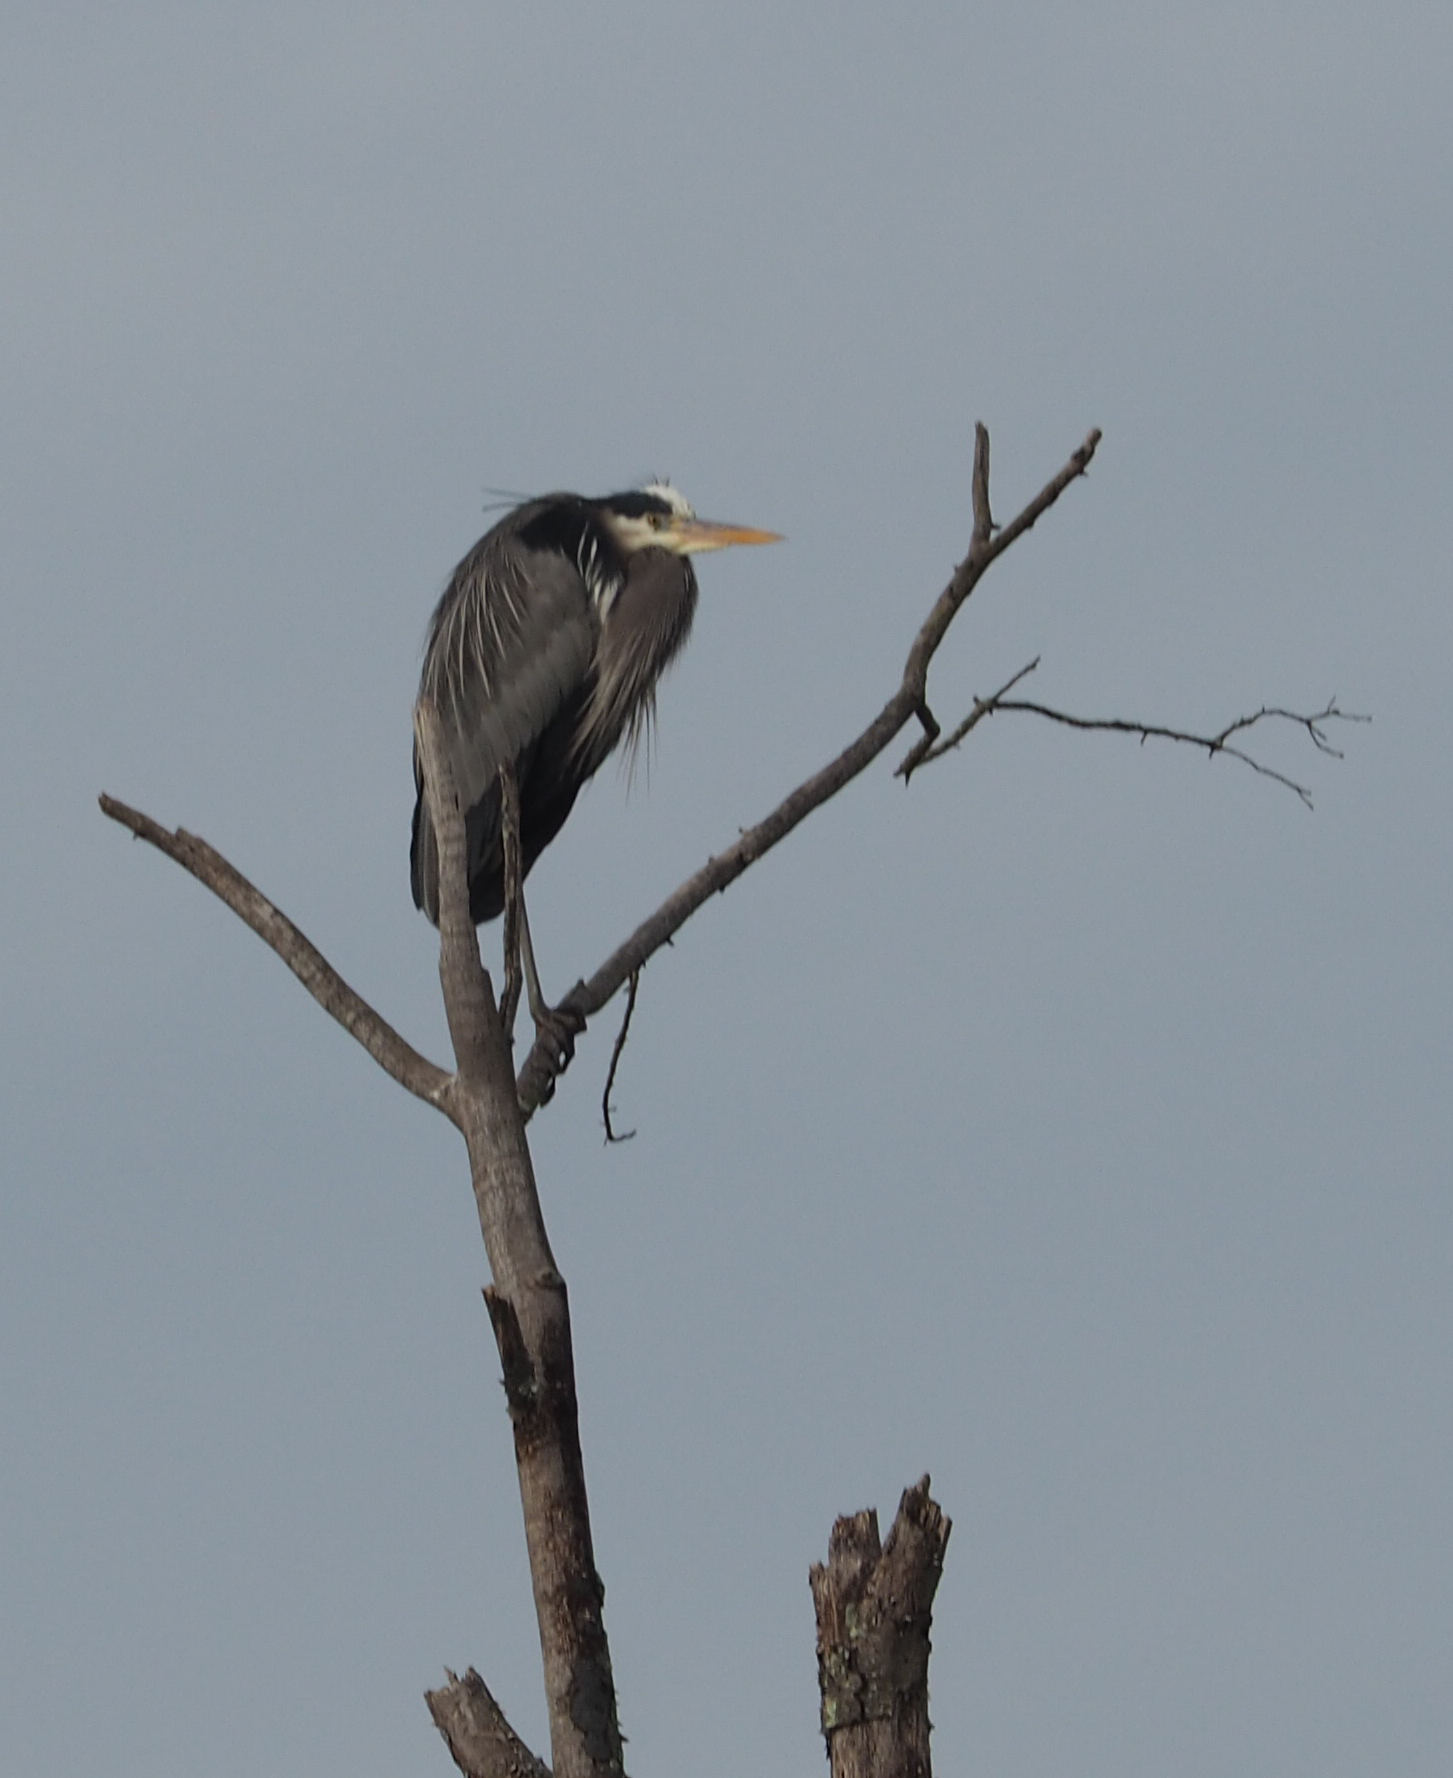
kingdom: Animalia
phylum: Chordata
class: Aves
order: Pelecaniformes
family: Ardeidae
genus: Ardea
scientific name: Ardea herodias
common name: Great blue heron
